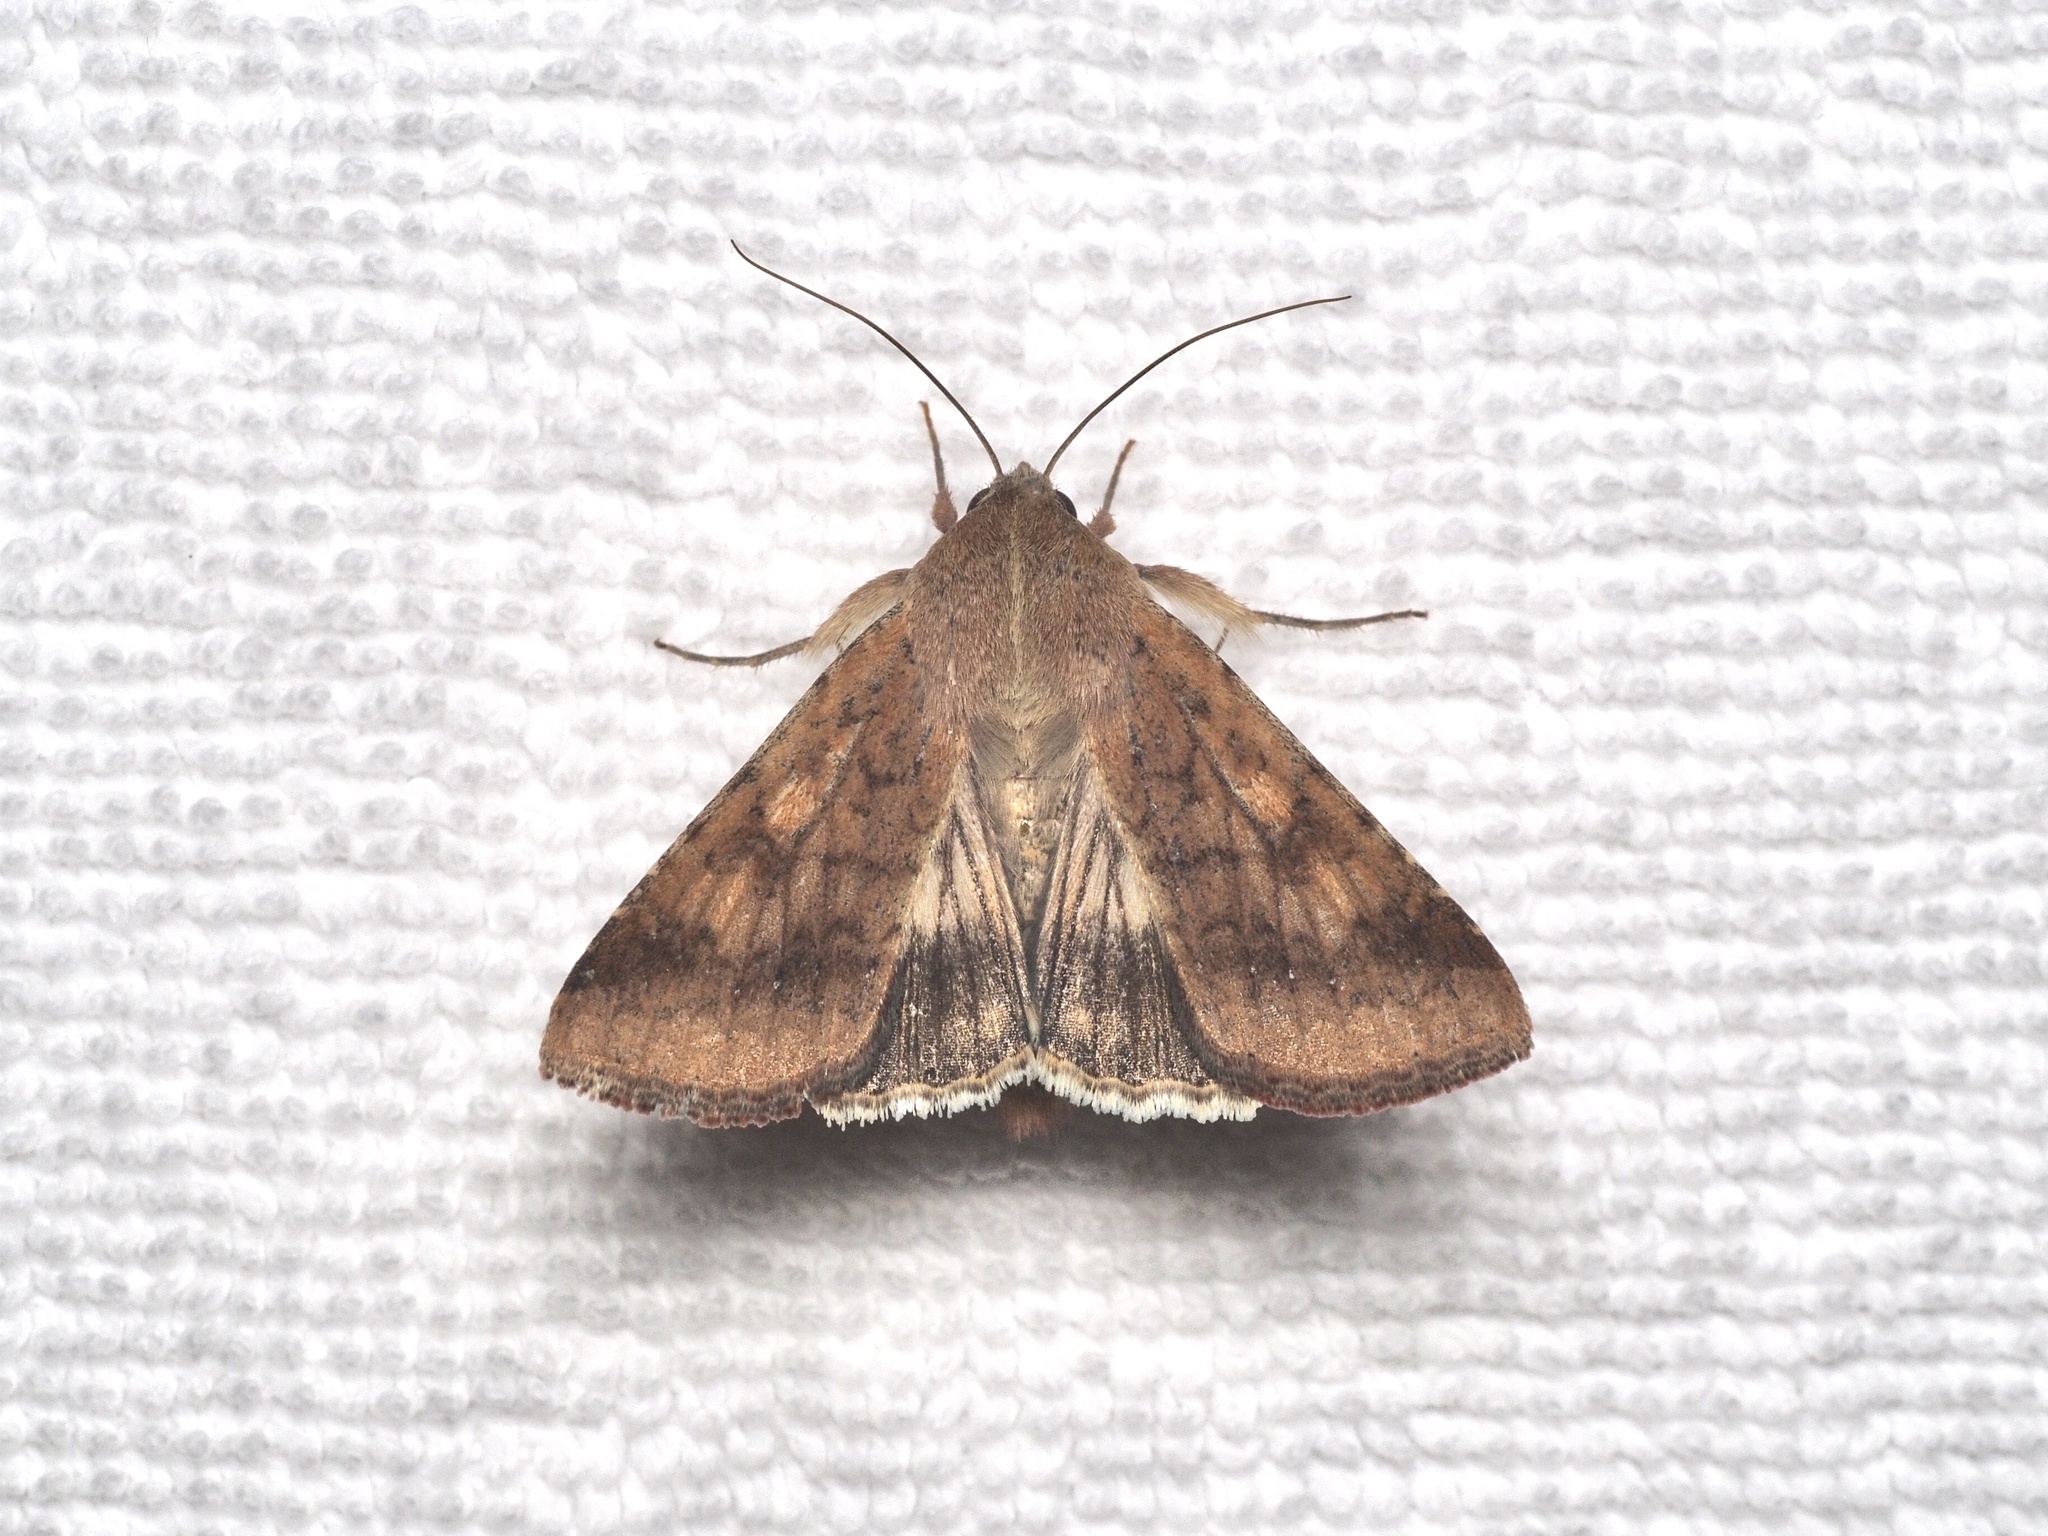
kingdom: Animalia
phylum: Arthropoda
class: Insecta
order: Lepidoptera
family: Noctuidae
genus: Helicoverpa
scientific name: Helicoverpa armigera
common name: Cotton bollworm
